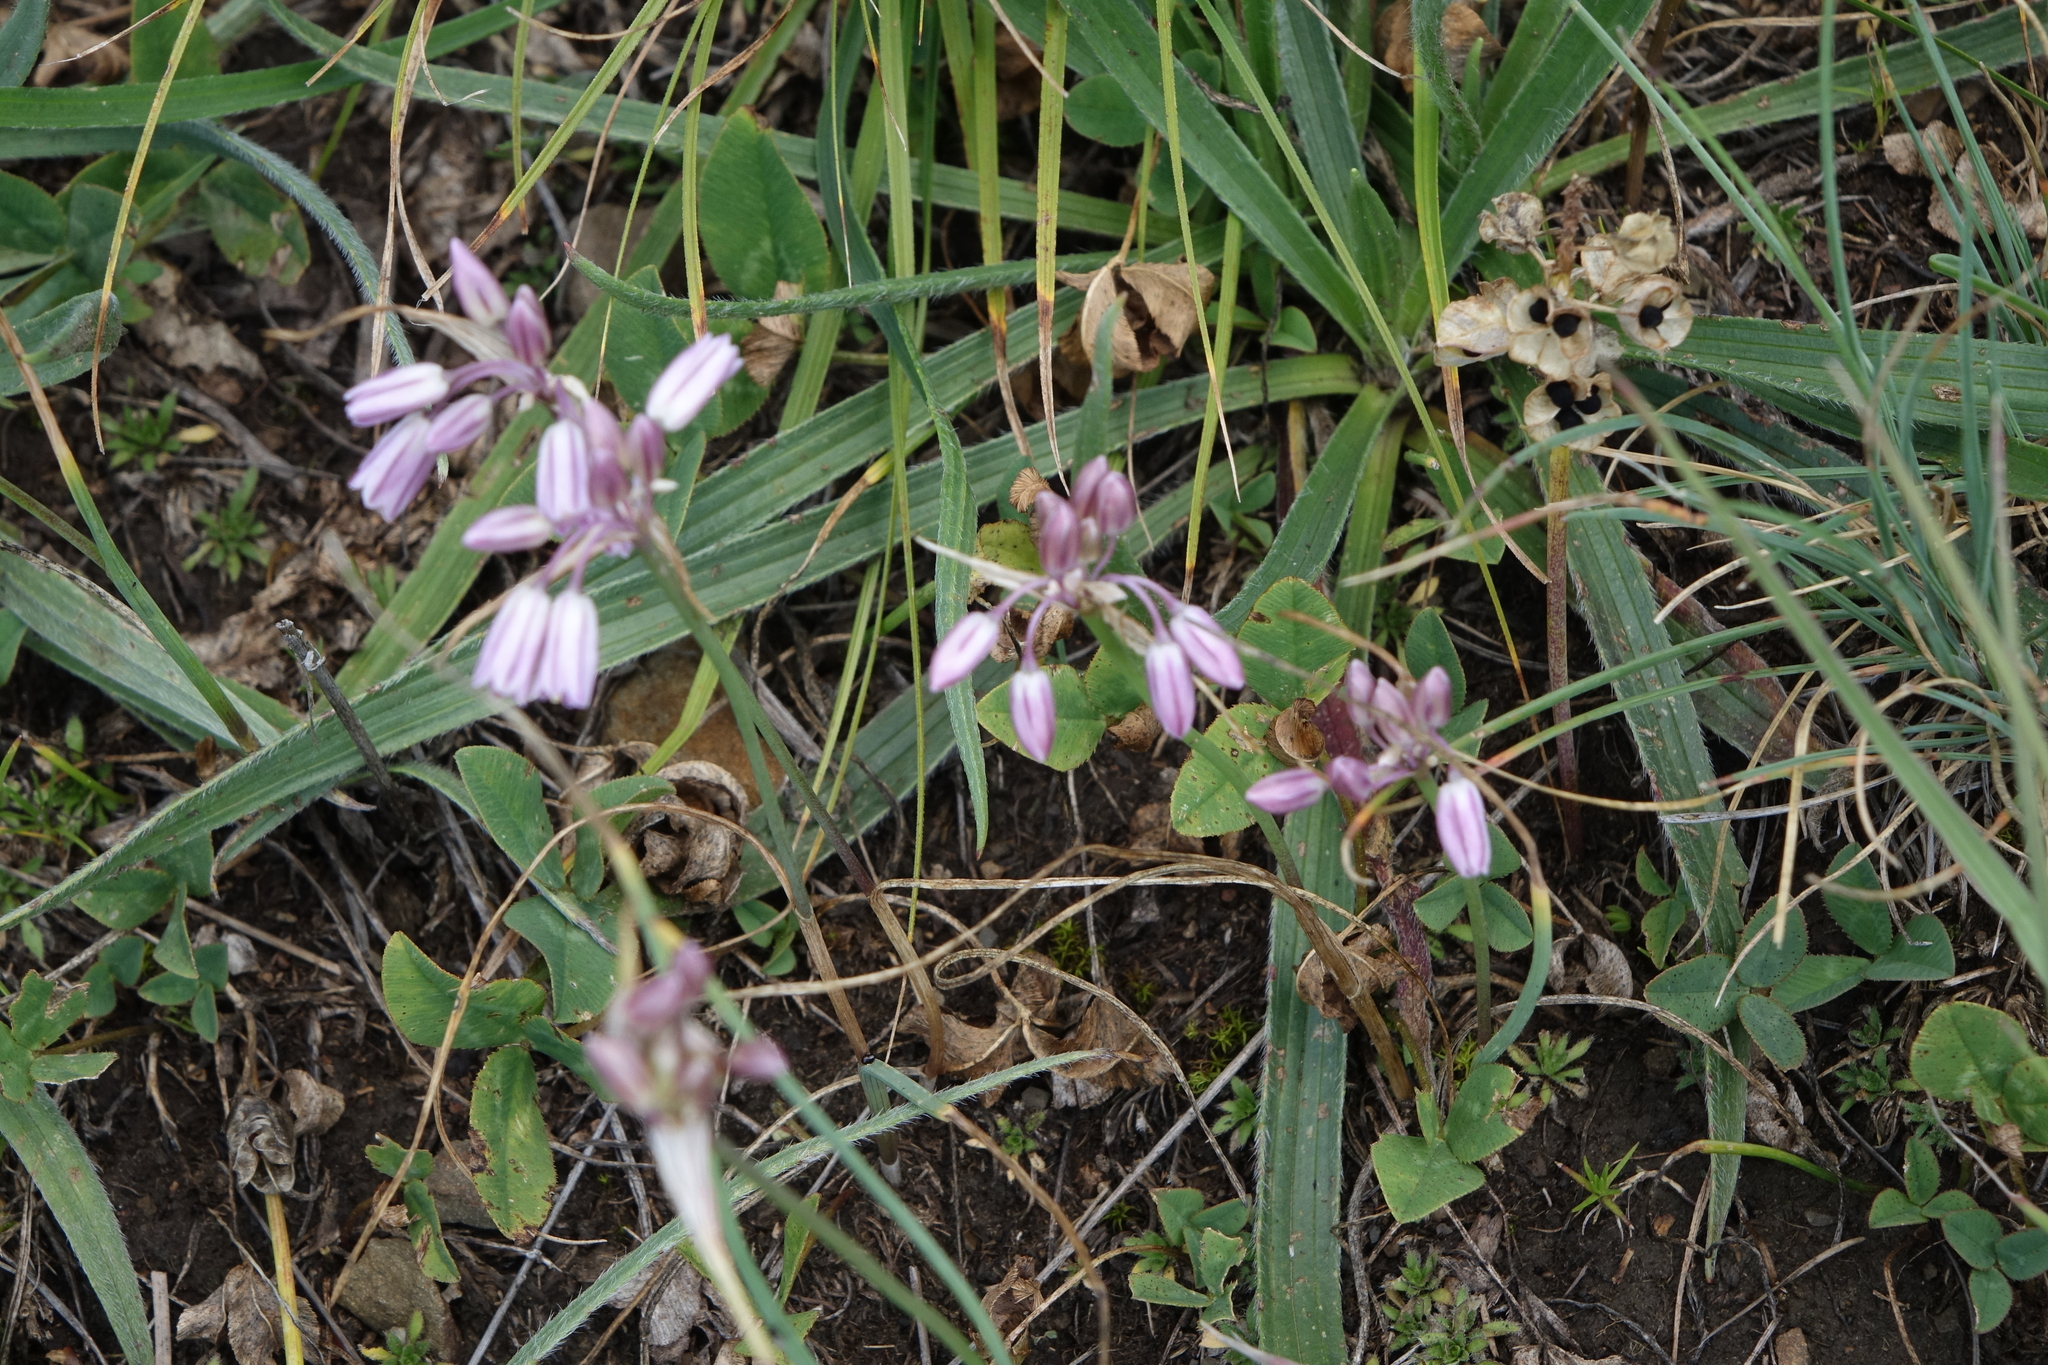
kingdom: Plantae
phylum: Tracheophyta
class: Liliopsida
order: Asparagales
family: Amaryllidaceae
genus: Allium
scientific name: Allium kunthianum
